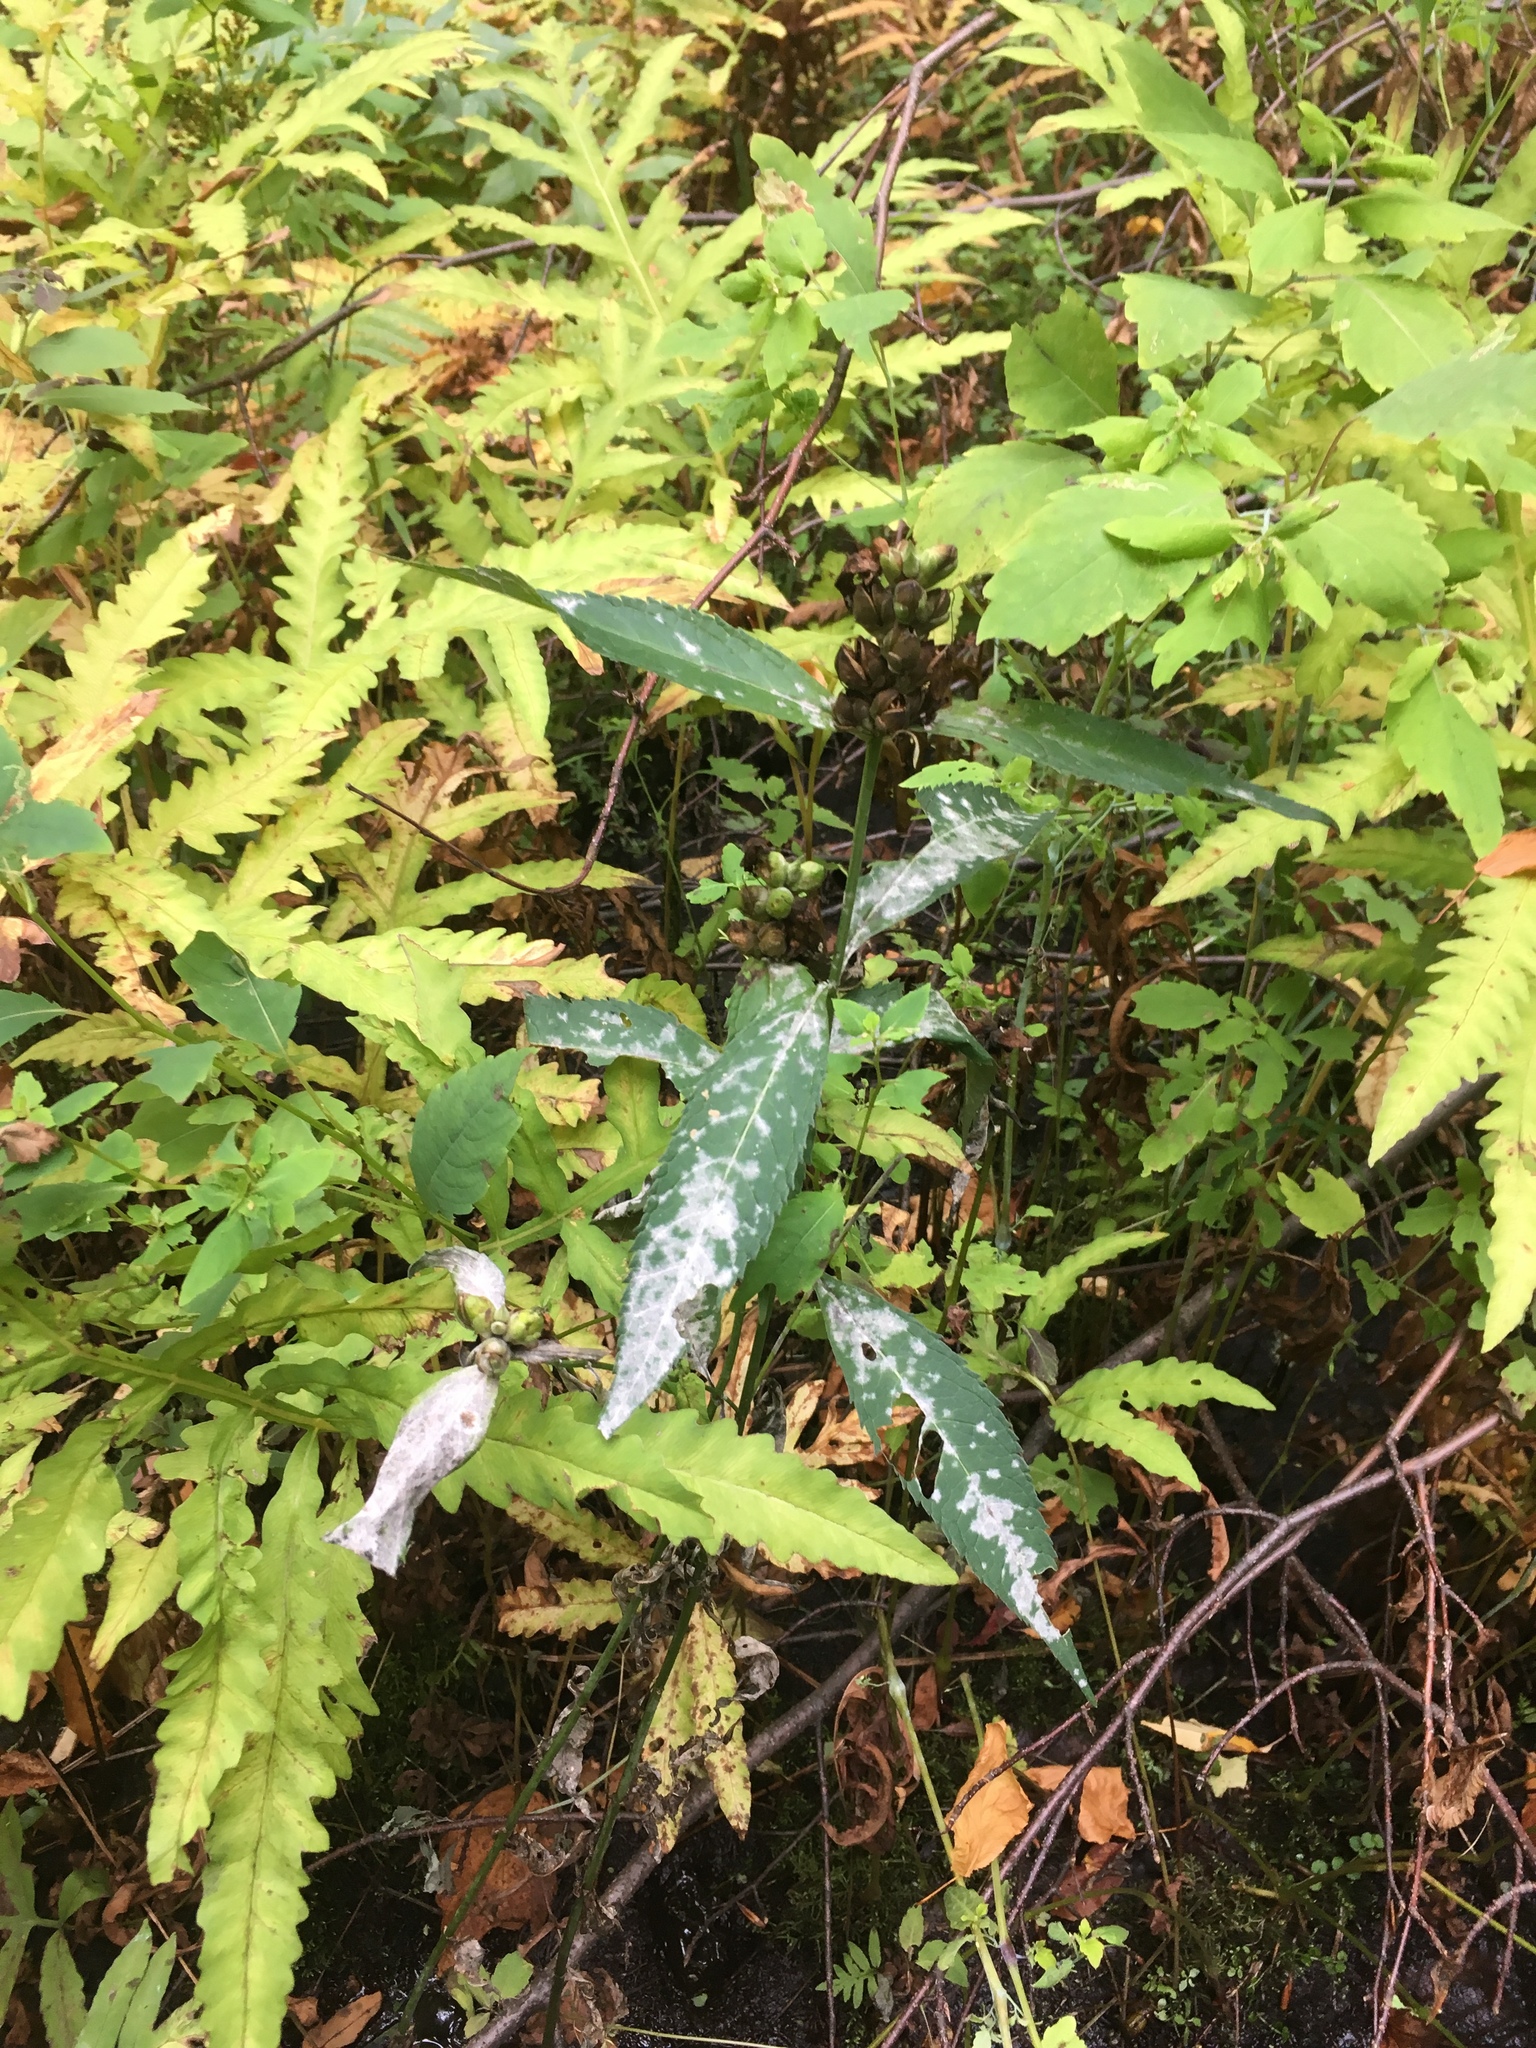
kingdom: Plantae
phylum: Tracheophyta
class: Magnoliopsida
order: Lamiales
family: Plantaginaceae
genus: Chelone
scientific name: Chelone glabra
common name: Snakehead
